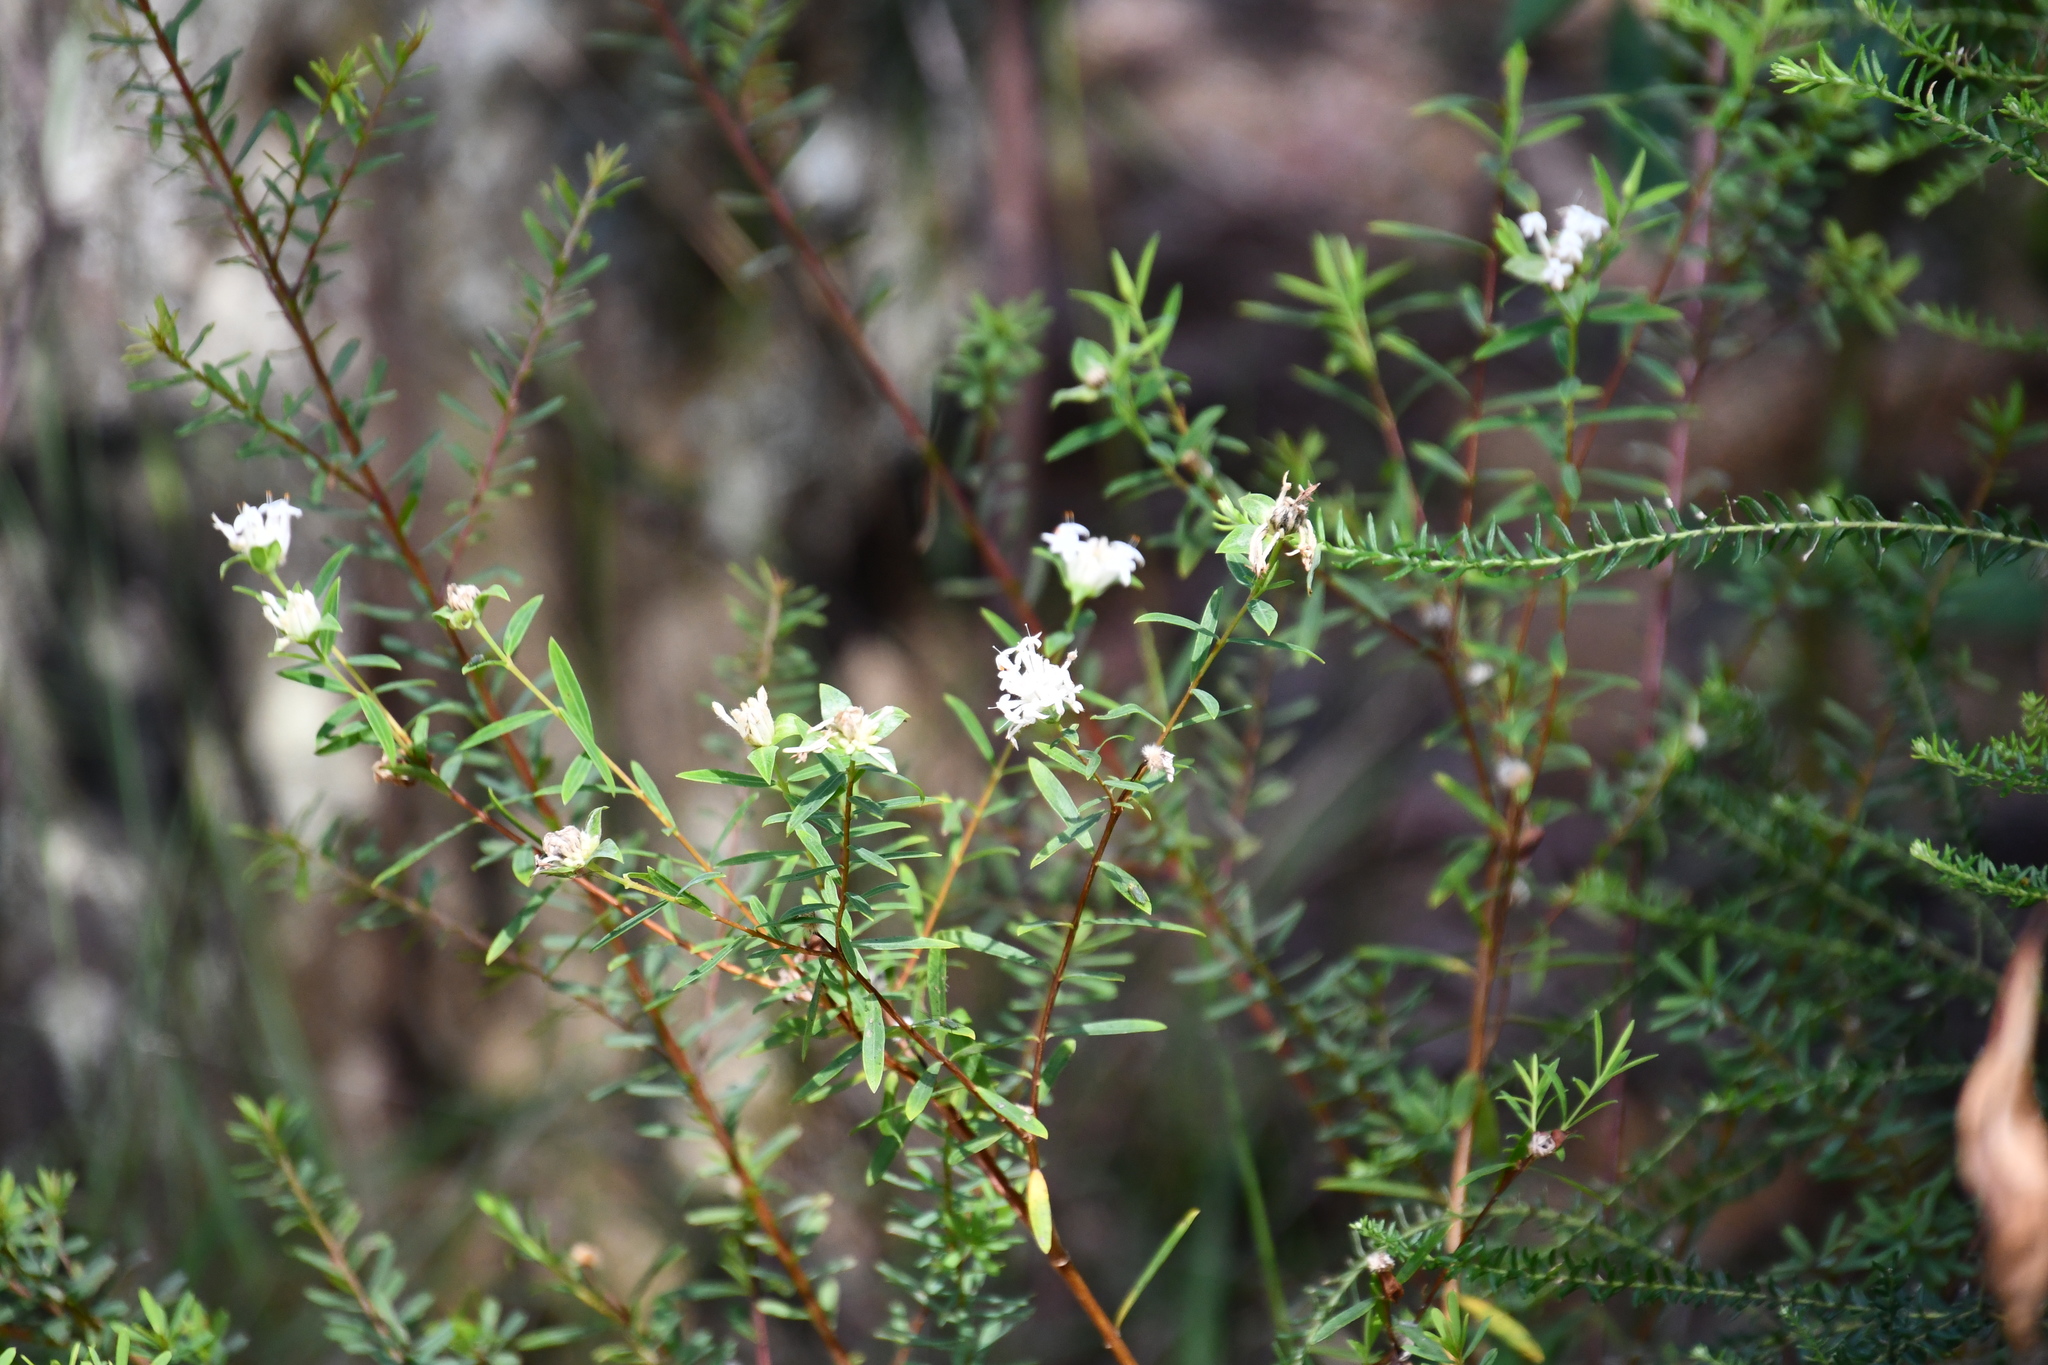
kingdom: Plantae
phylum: Tracheophyta
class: Magnoliopsida
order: Malvales
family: Thymelaeaceae
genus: Pimelea
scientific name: Pimelea linifolia
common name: Queen-of-the-bush
